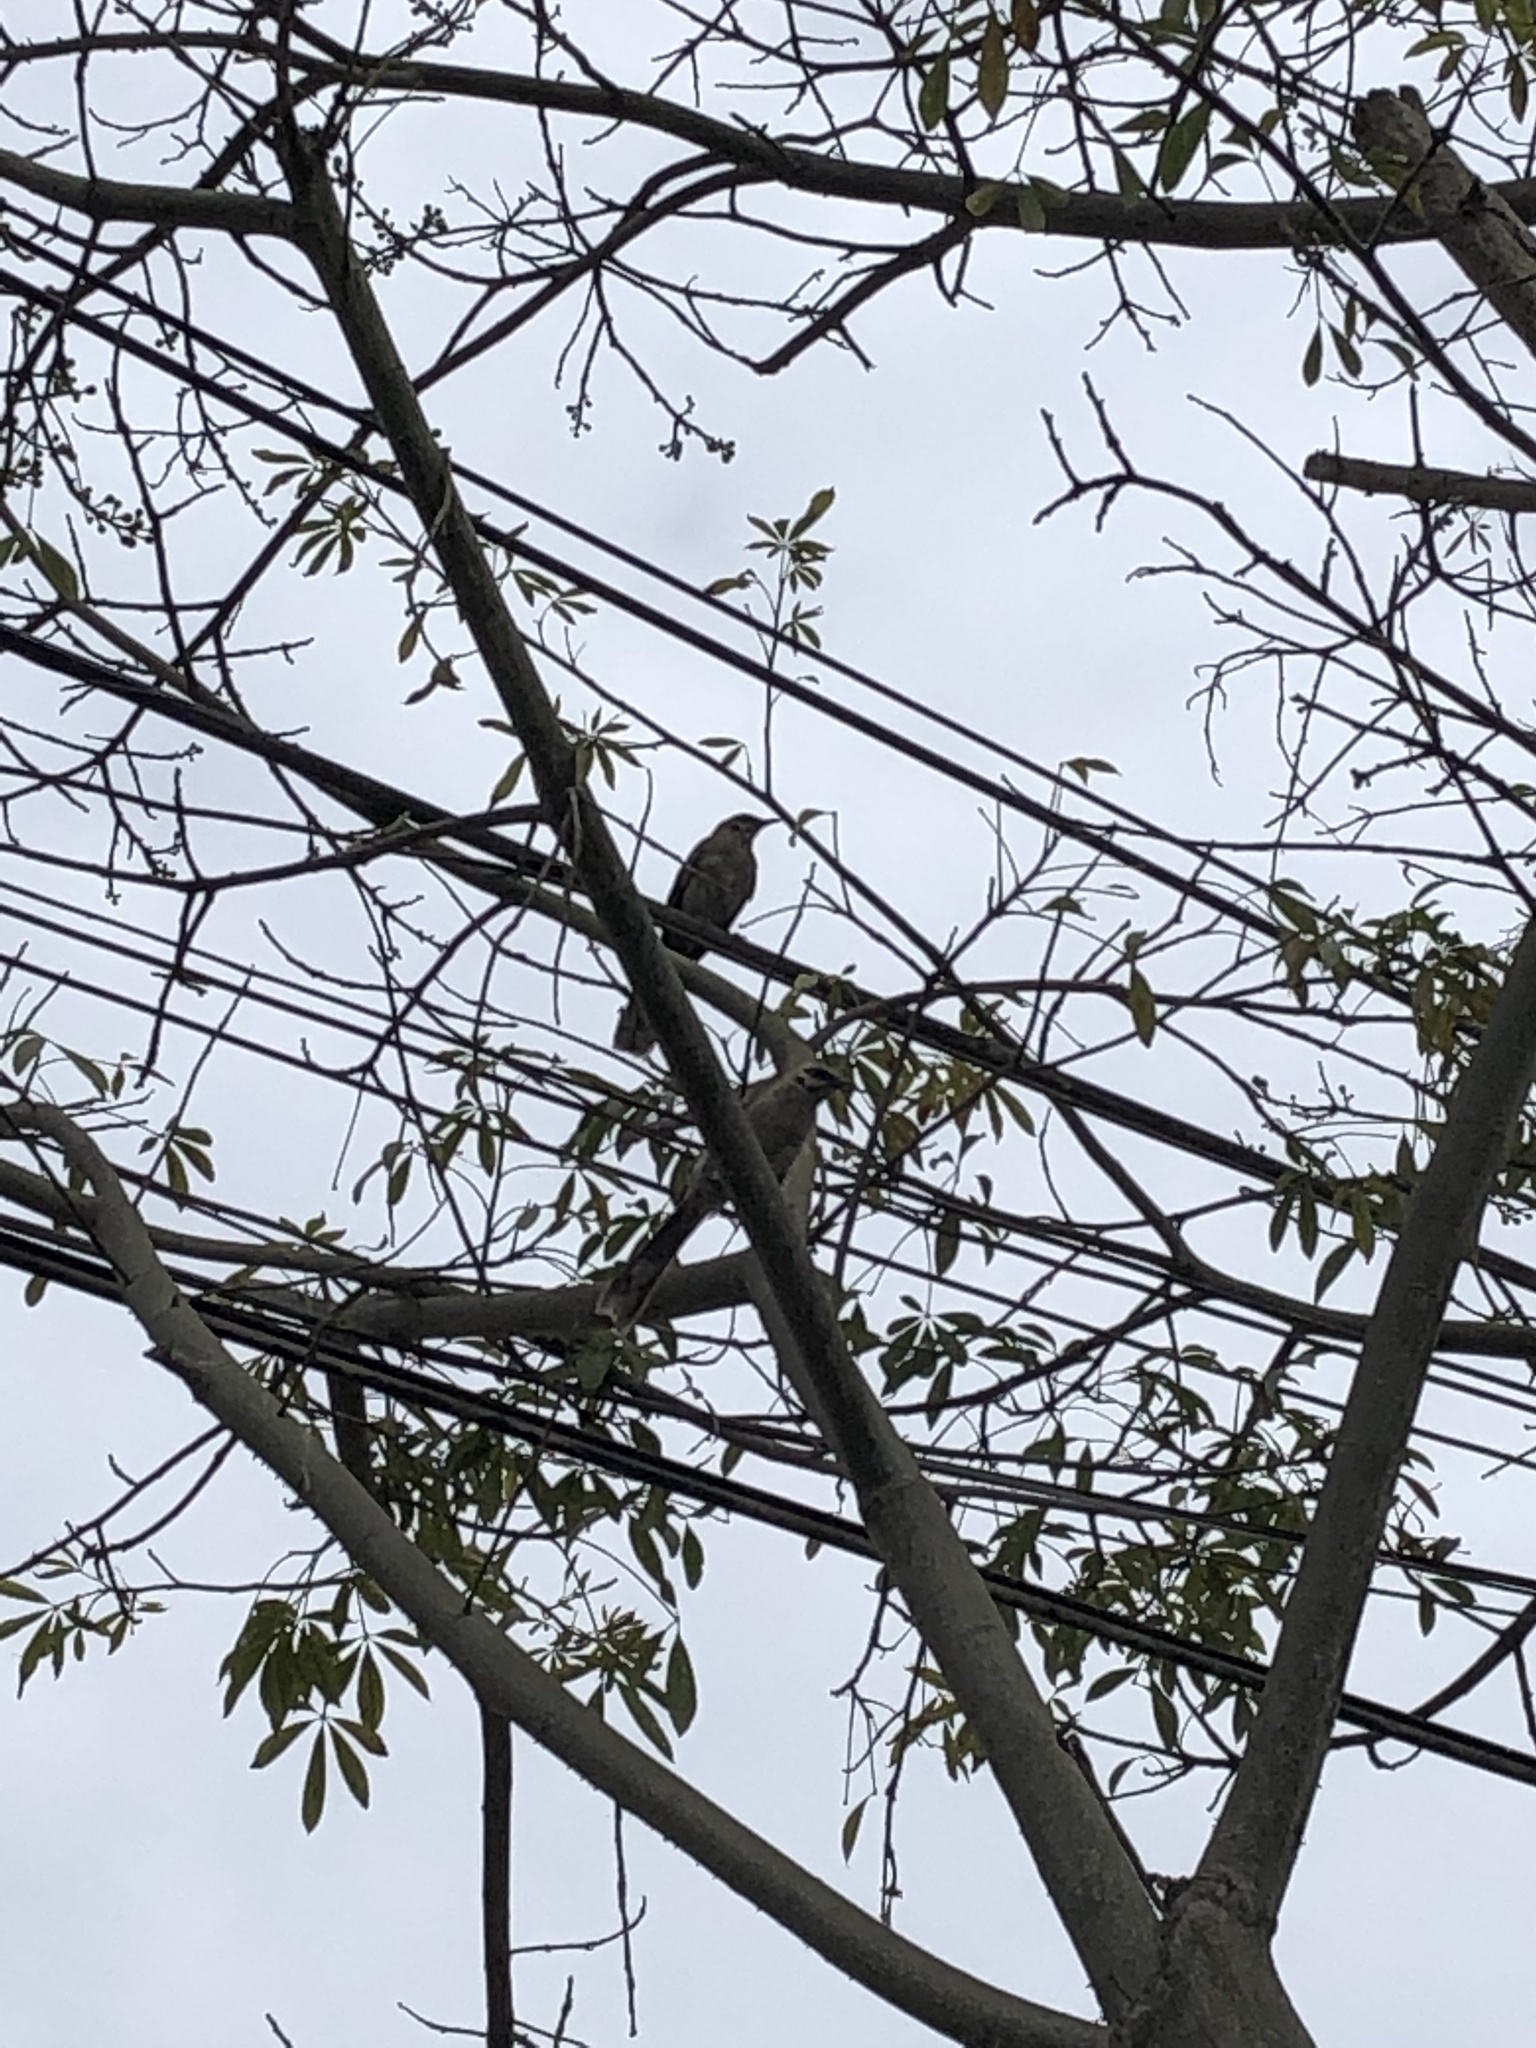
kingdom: Animalia
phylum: Chordata
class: Aves
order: Passeriformes
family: Mimidae
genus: Mimus
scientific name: Mimus longicaudatus
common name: Long-tailed mockingbird
